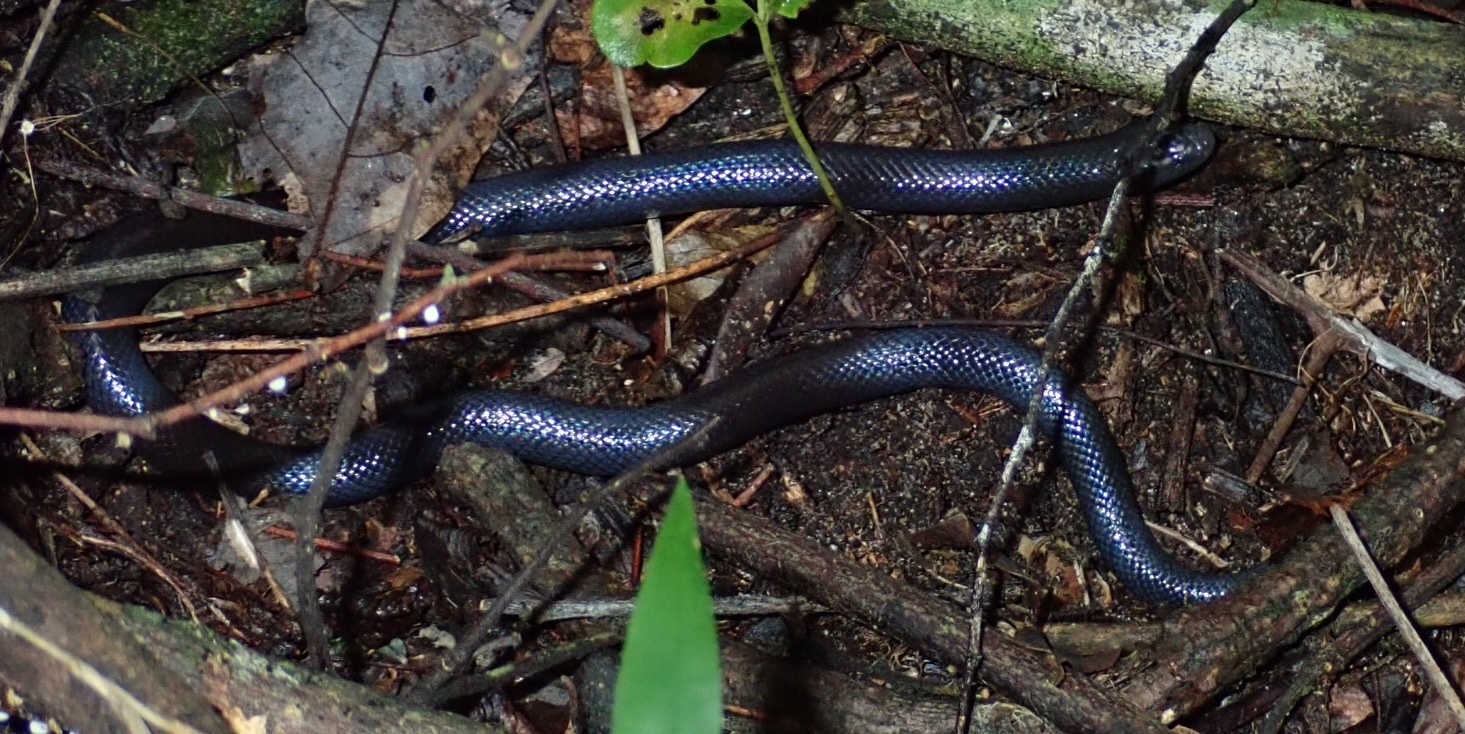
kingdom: Animalia
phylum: Chordata
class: Squamata
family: Atractaspididae
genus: Amblyodipsas
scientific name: Amblyodipsas polylepis
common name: Common purple-glossed snake
